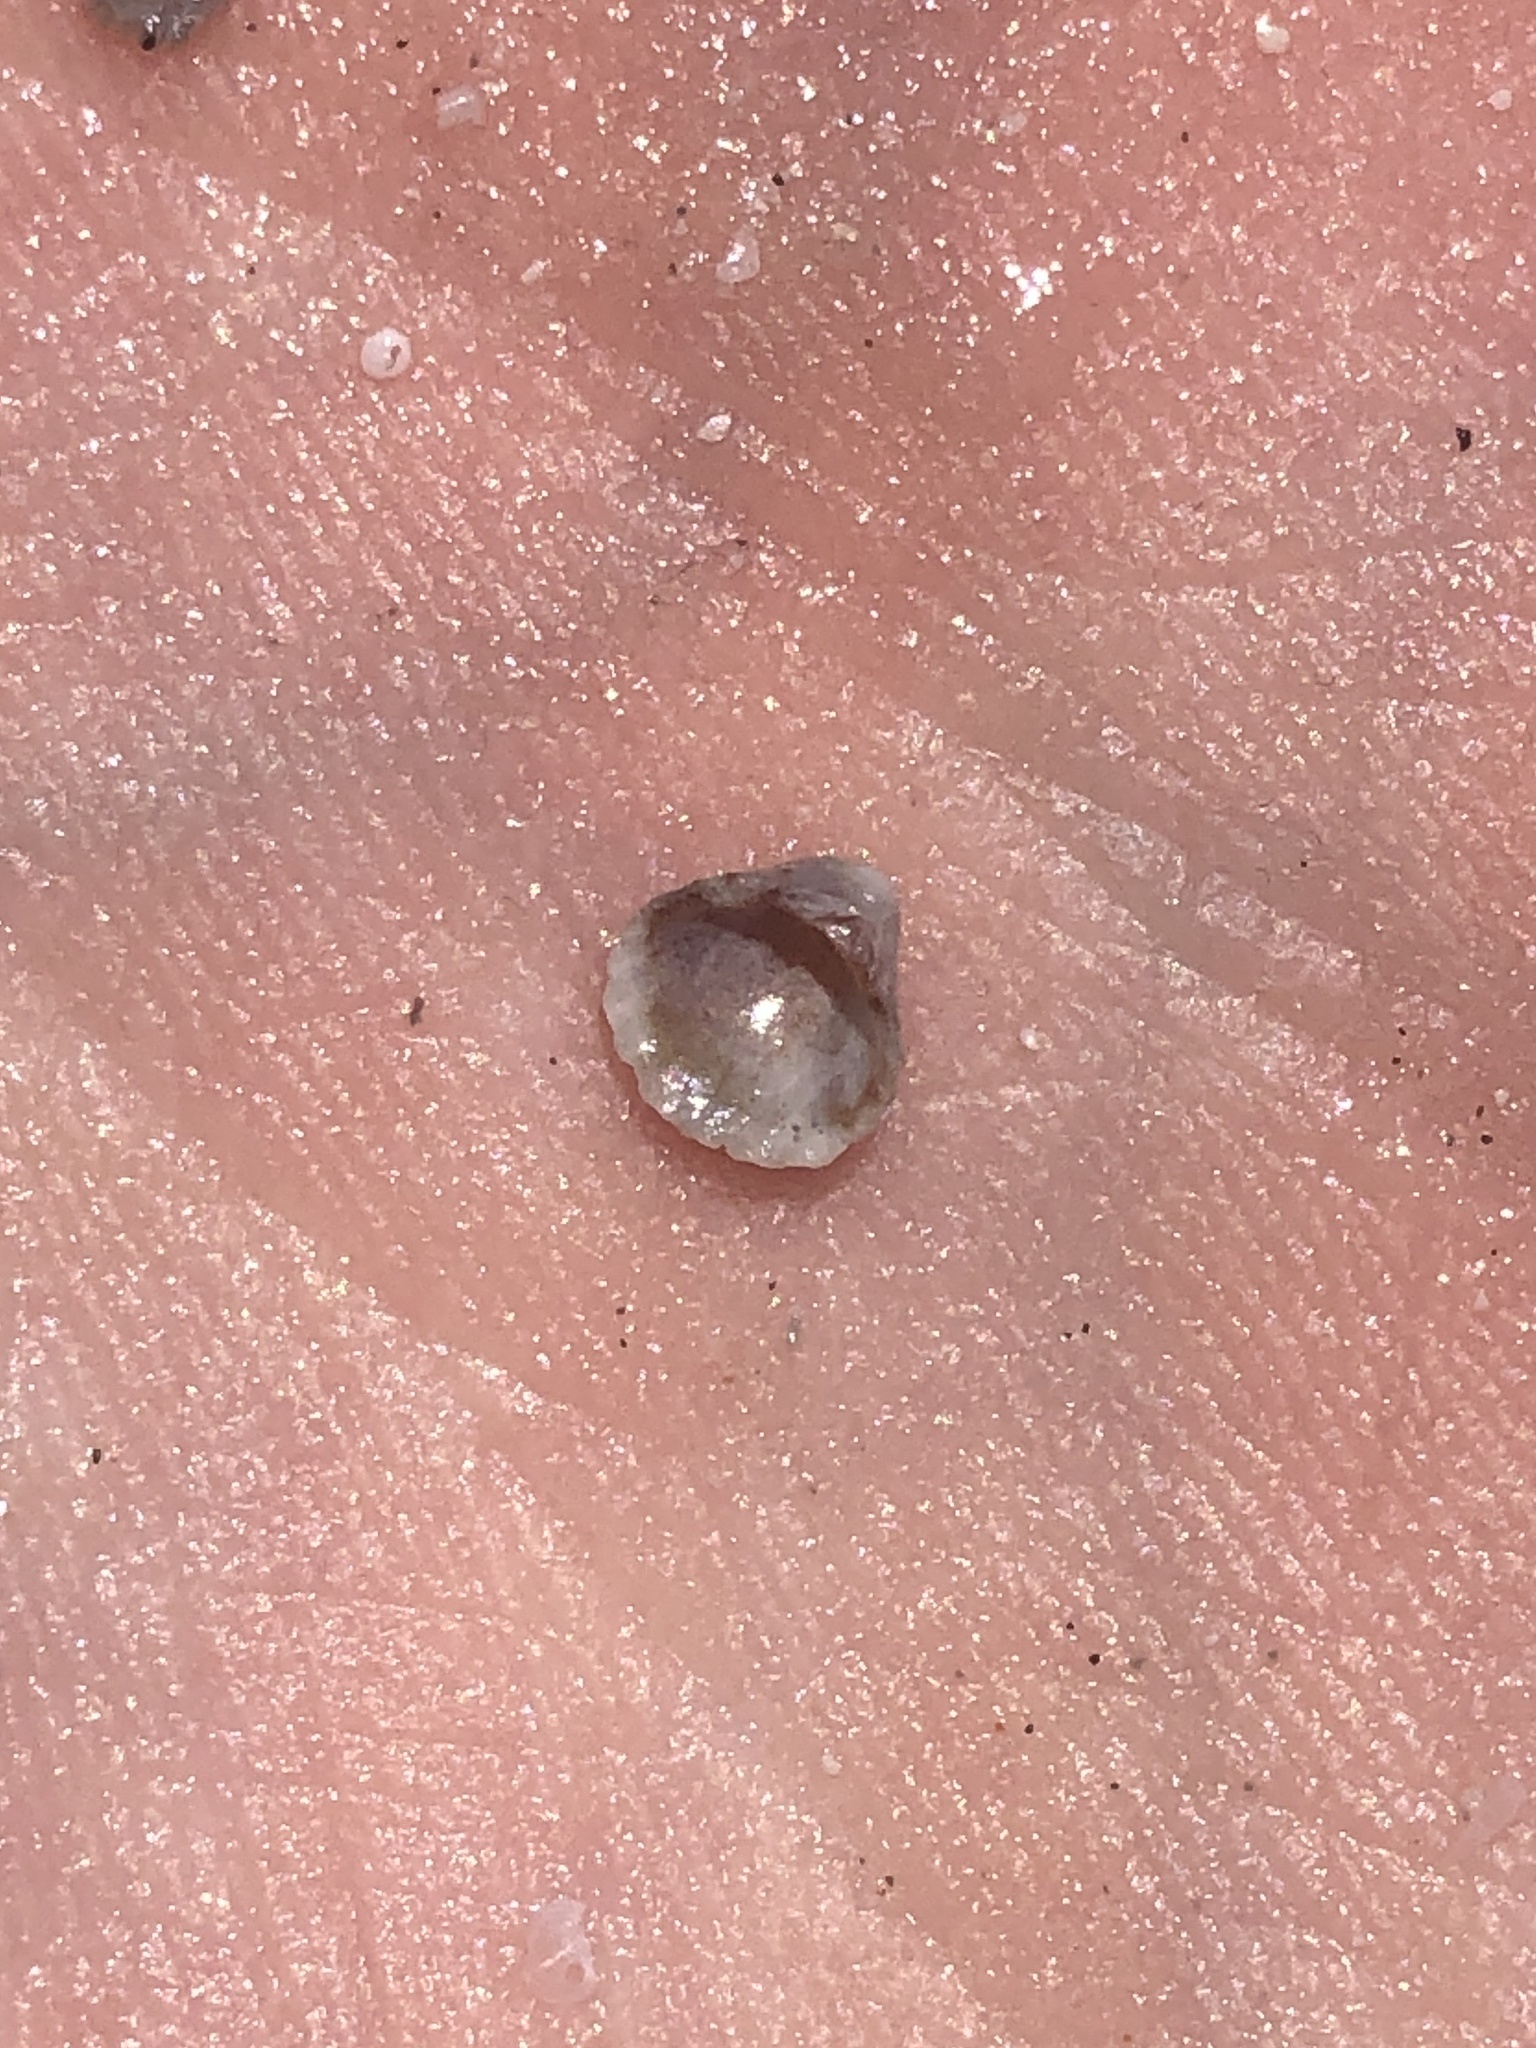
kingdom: Animalia
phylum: Mollusca
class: Bivalvia
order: Carditida
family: Carditidae
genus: Pleuromeris
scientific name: Pleuromeris tridentata
